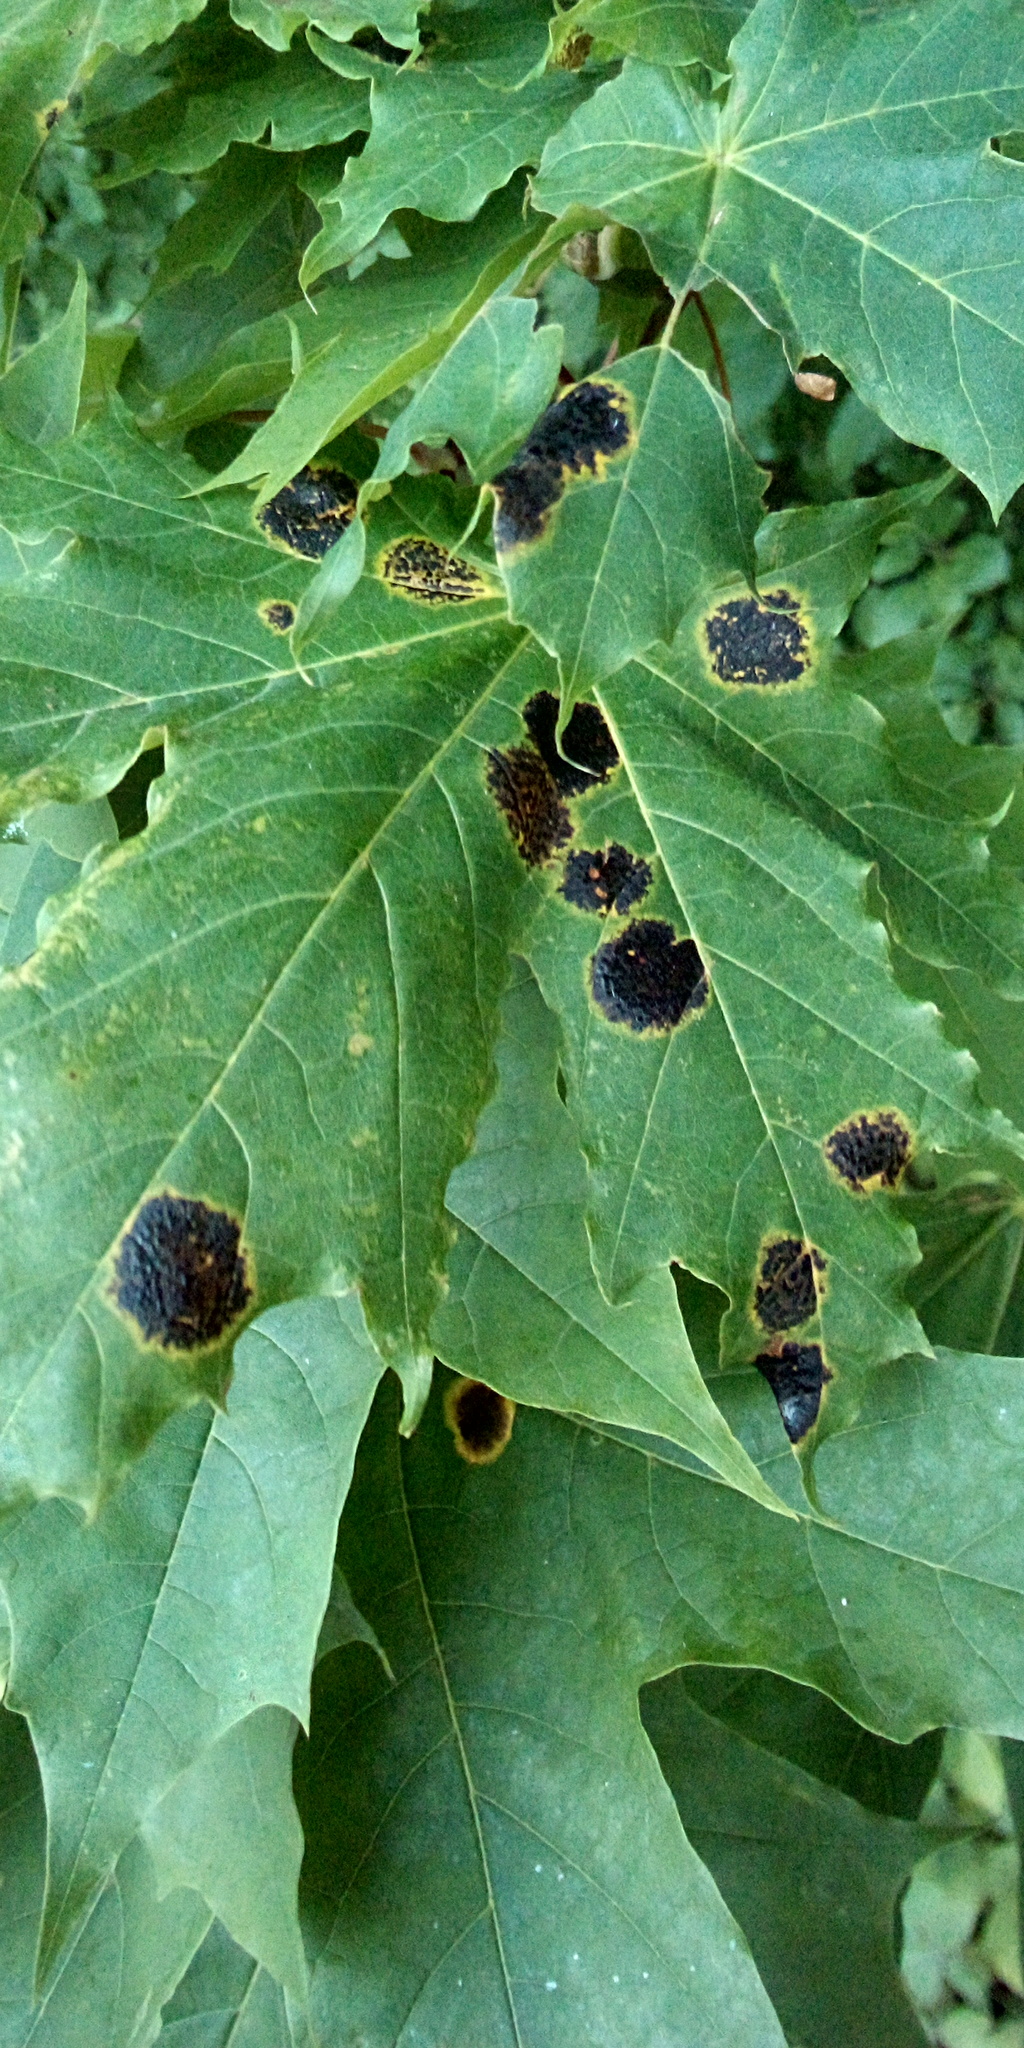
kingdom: Fungi
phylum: Ascomycota
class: Leotiomycetes
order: Rhytismatales
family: Rhytismataceae
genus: Rhytisma
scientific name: Rhytisma acerinum
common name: European tar spot
